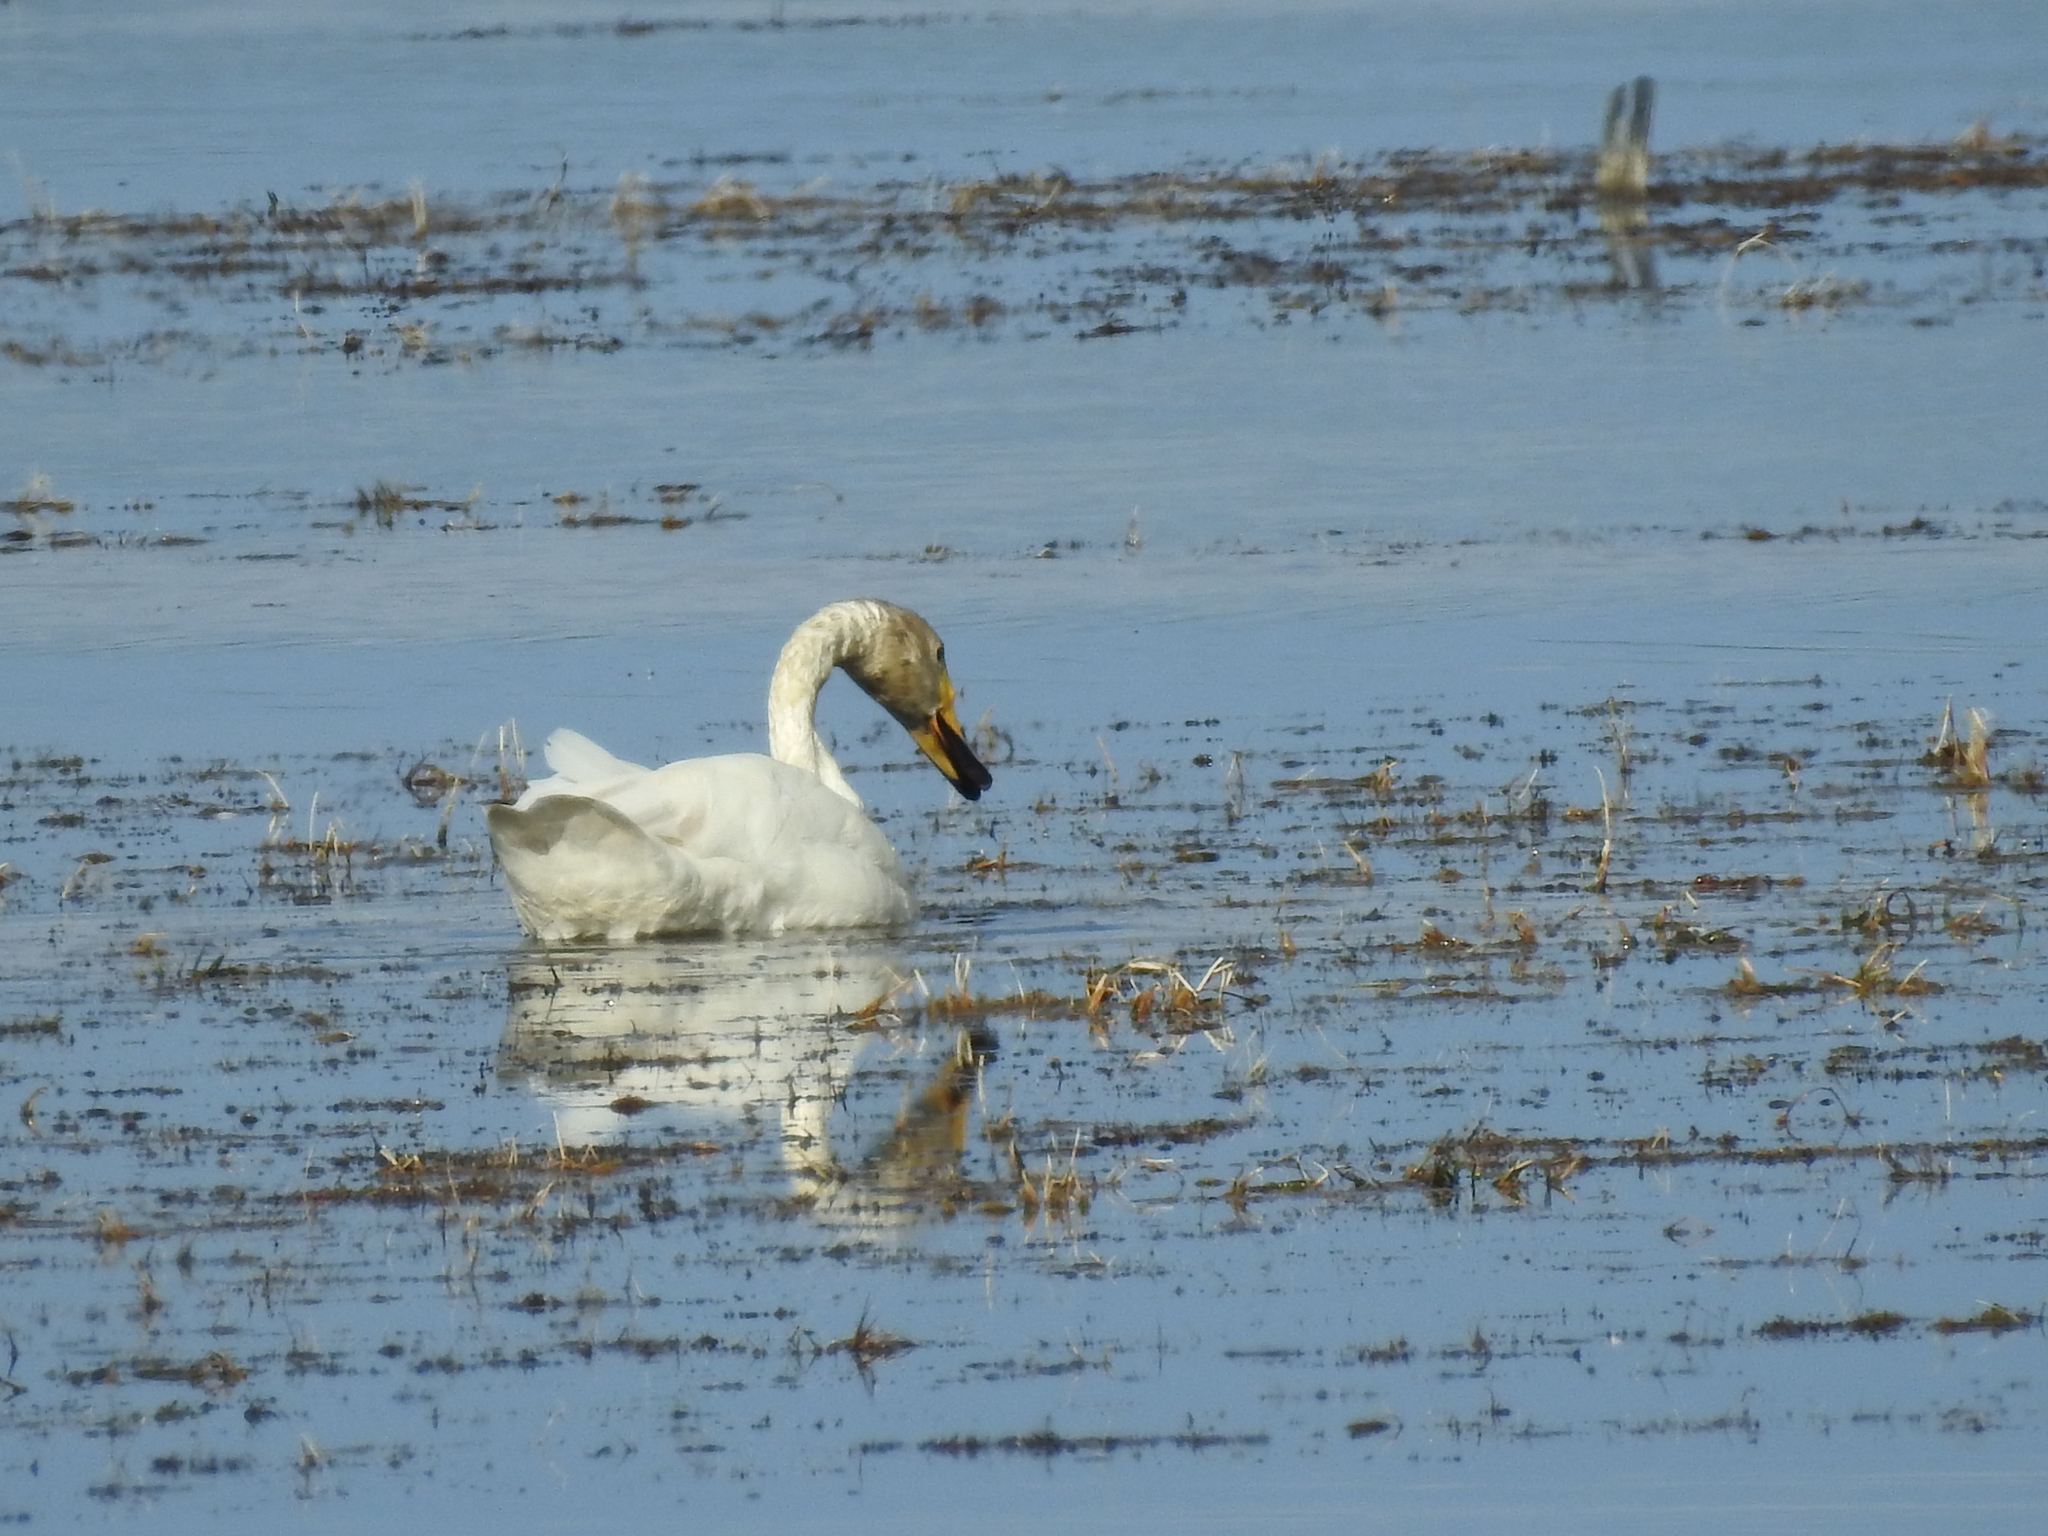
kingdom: Animalia
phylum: Chordata
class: Aves
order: Anseriformes
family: Anatidae
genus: Cygnus
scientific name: Cygnus cygnus
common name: Whooper swan
